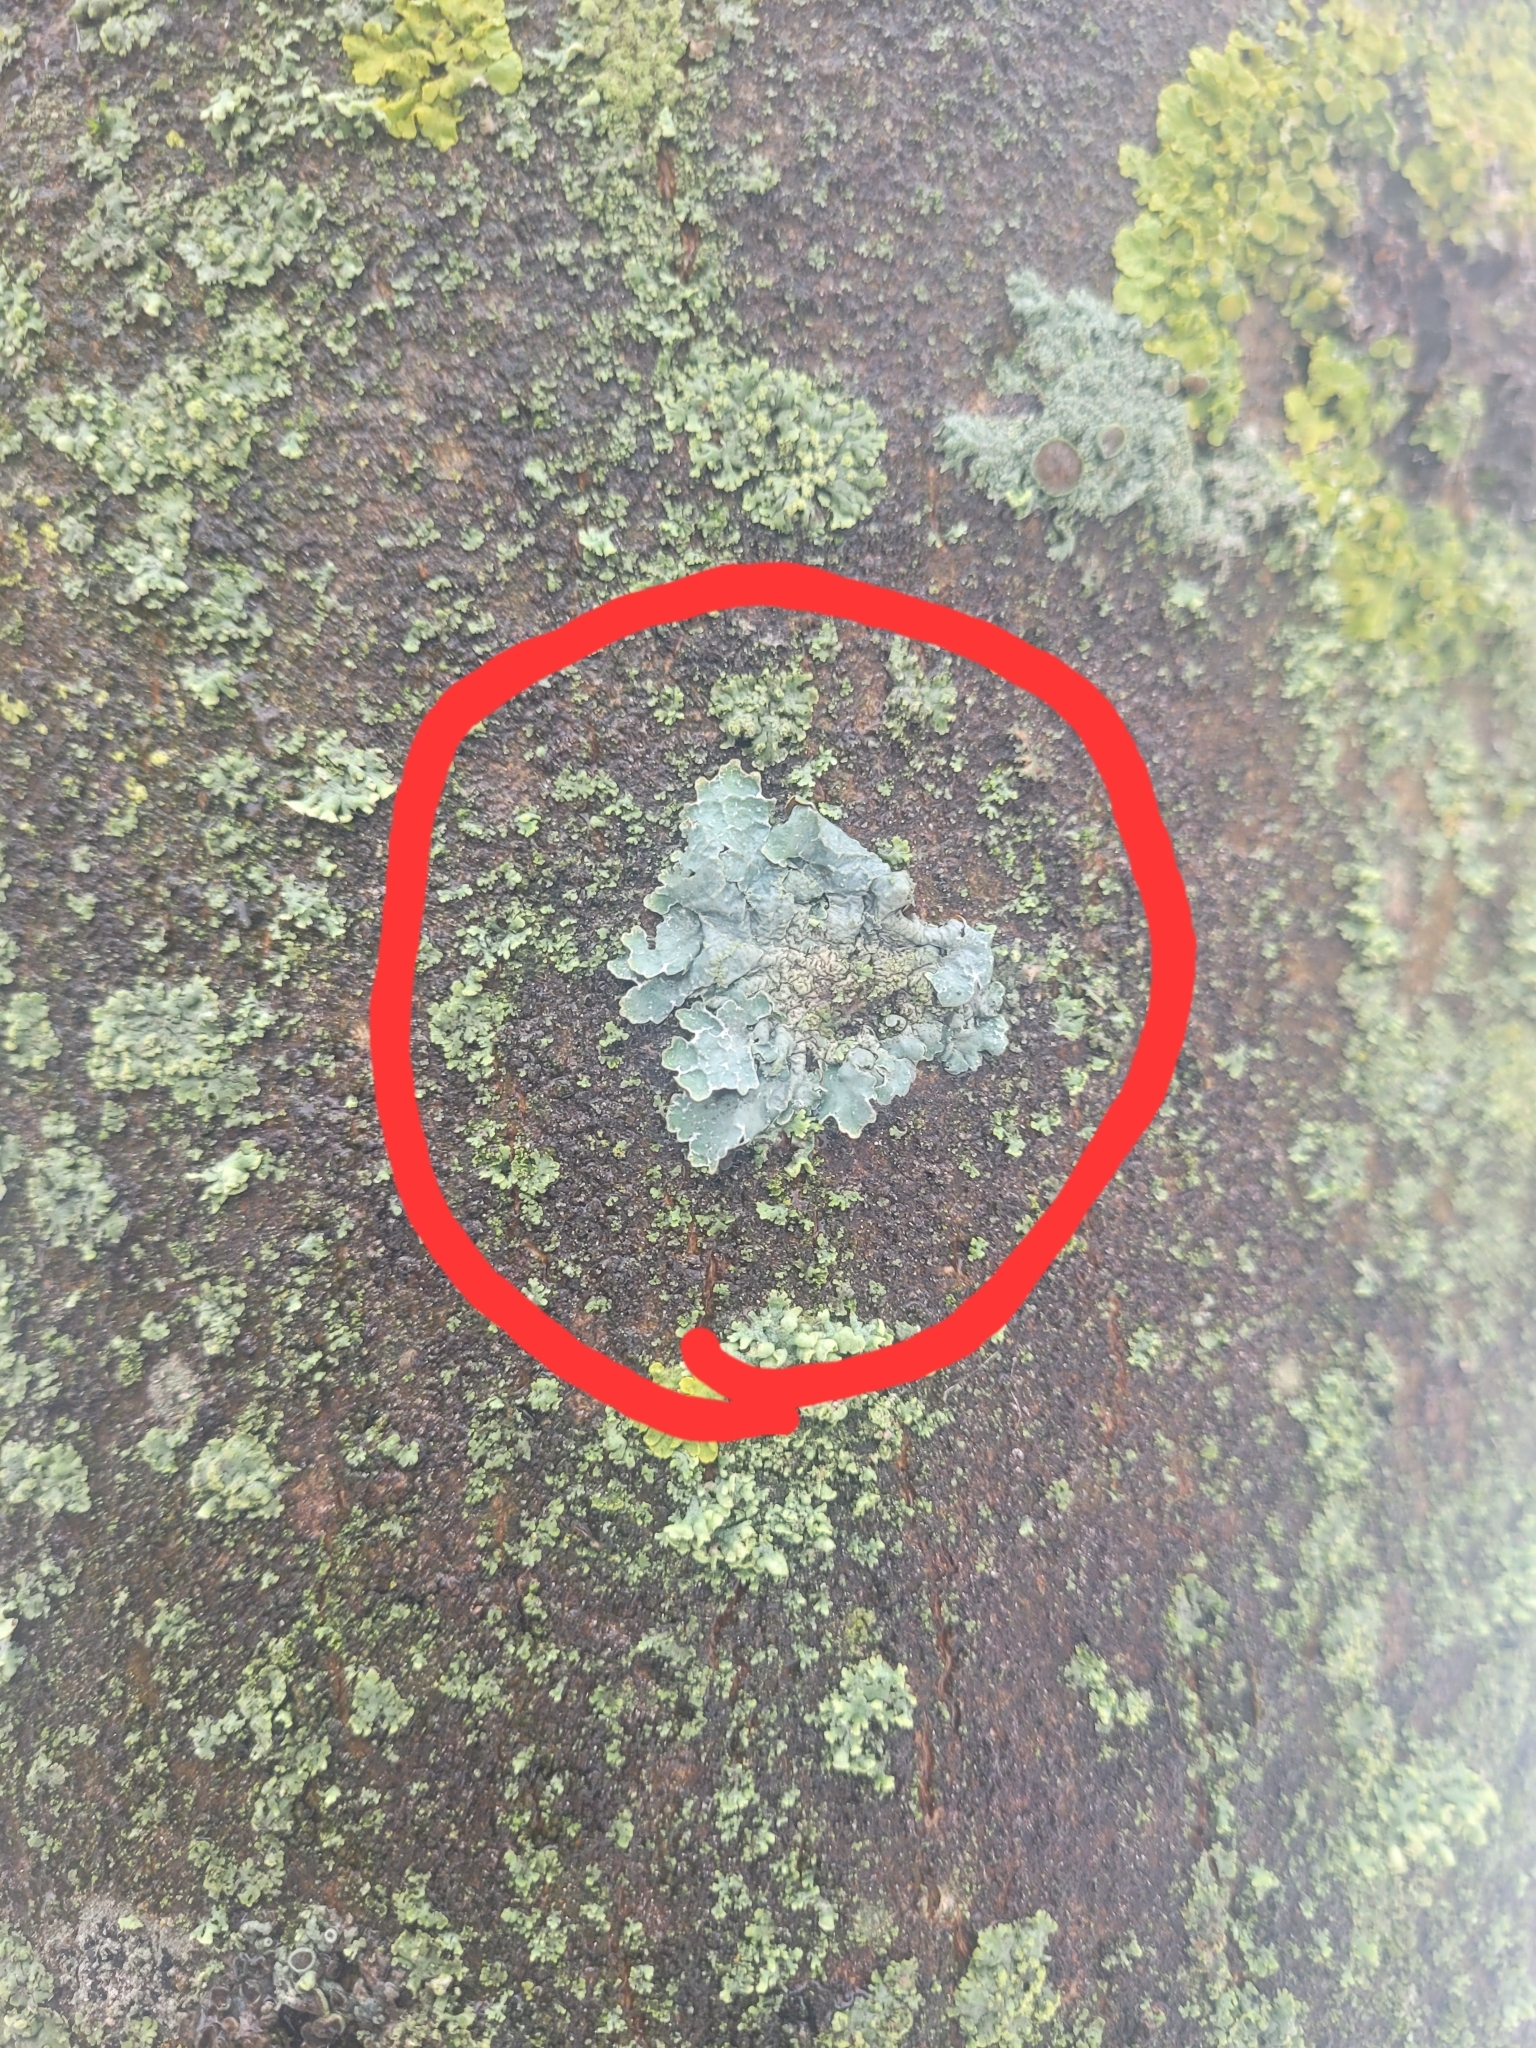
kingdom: Fungi
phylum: Ascomycota
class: Lecanoromycetes
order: Lecanorales
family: Parmeliaceae
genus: Parmelia
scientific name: Parmelia sulcata
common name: Netted shield lichen
